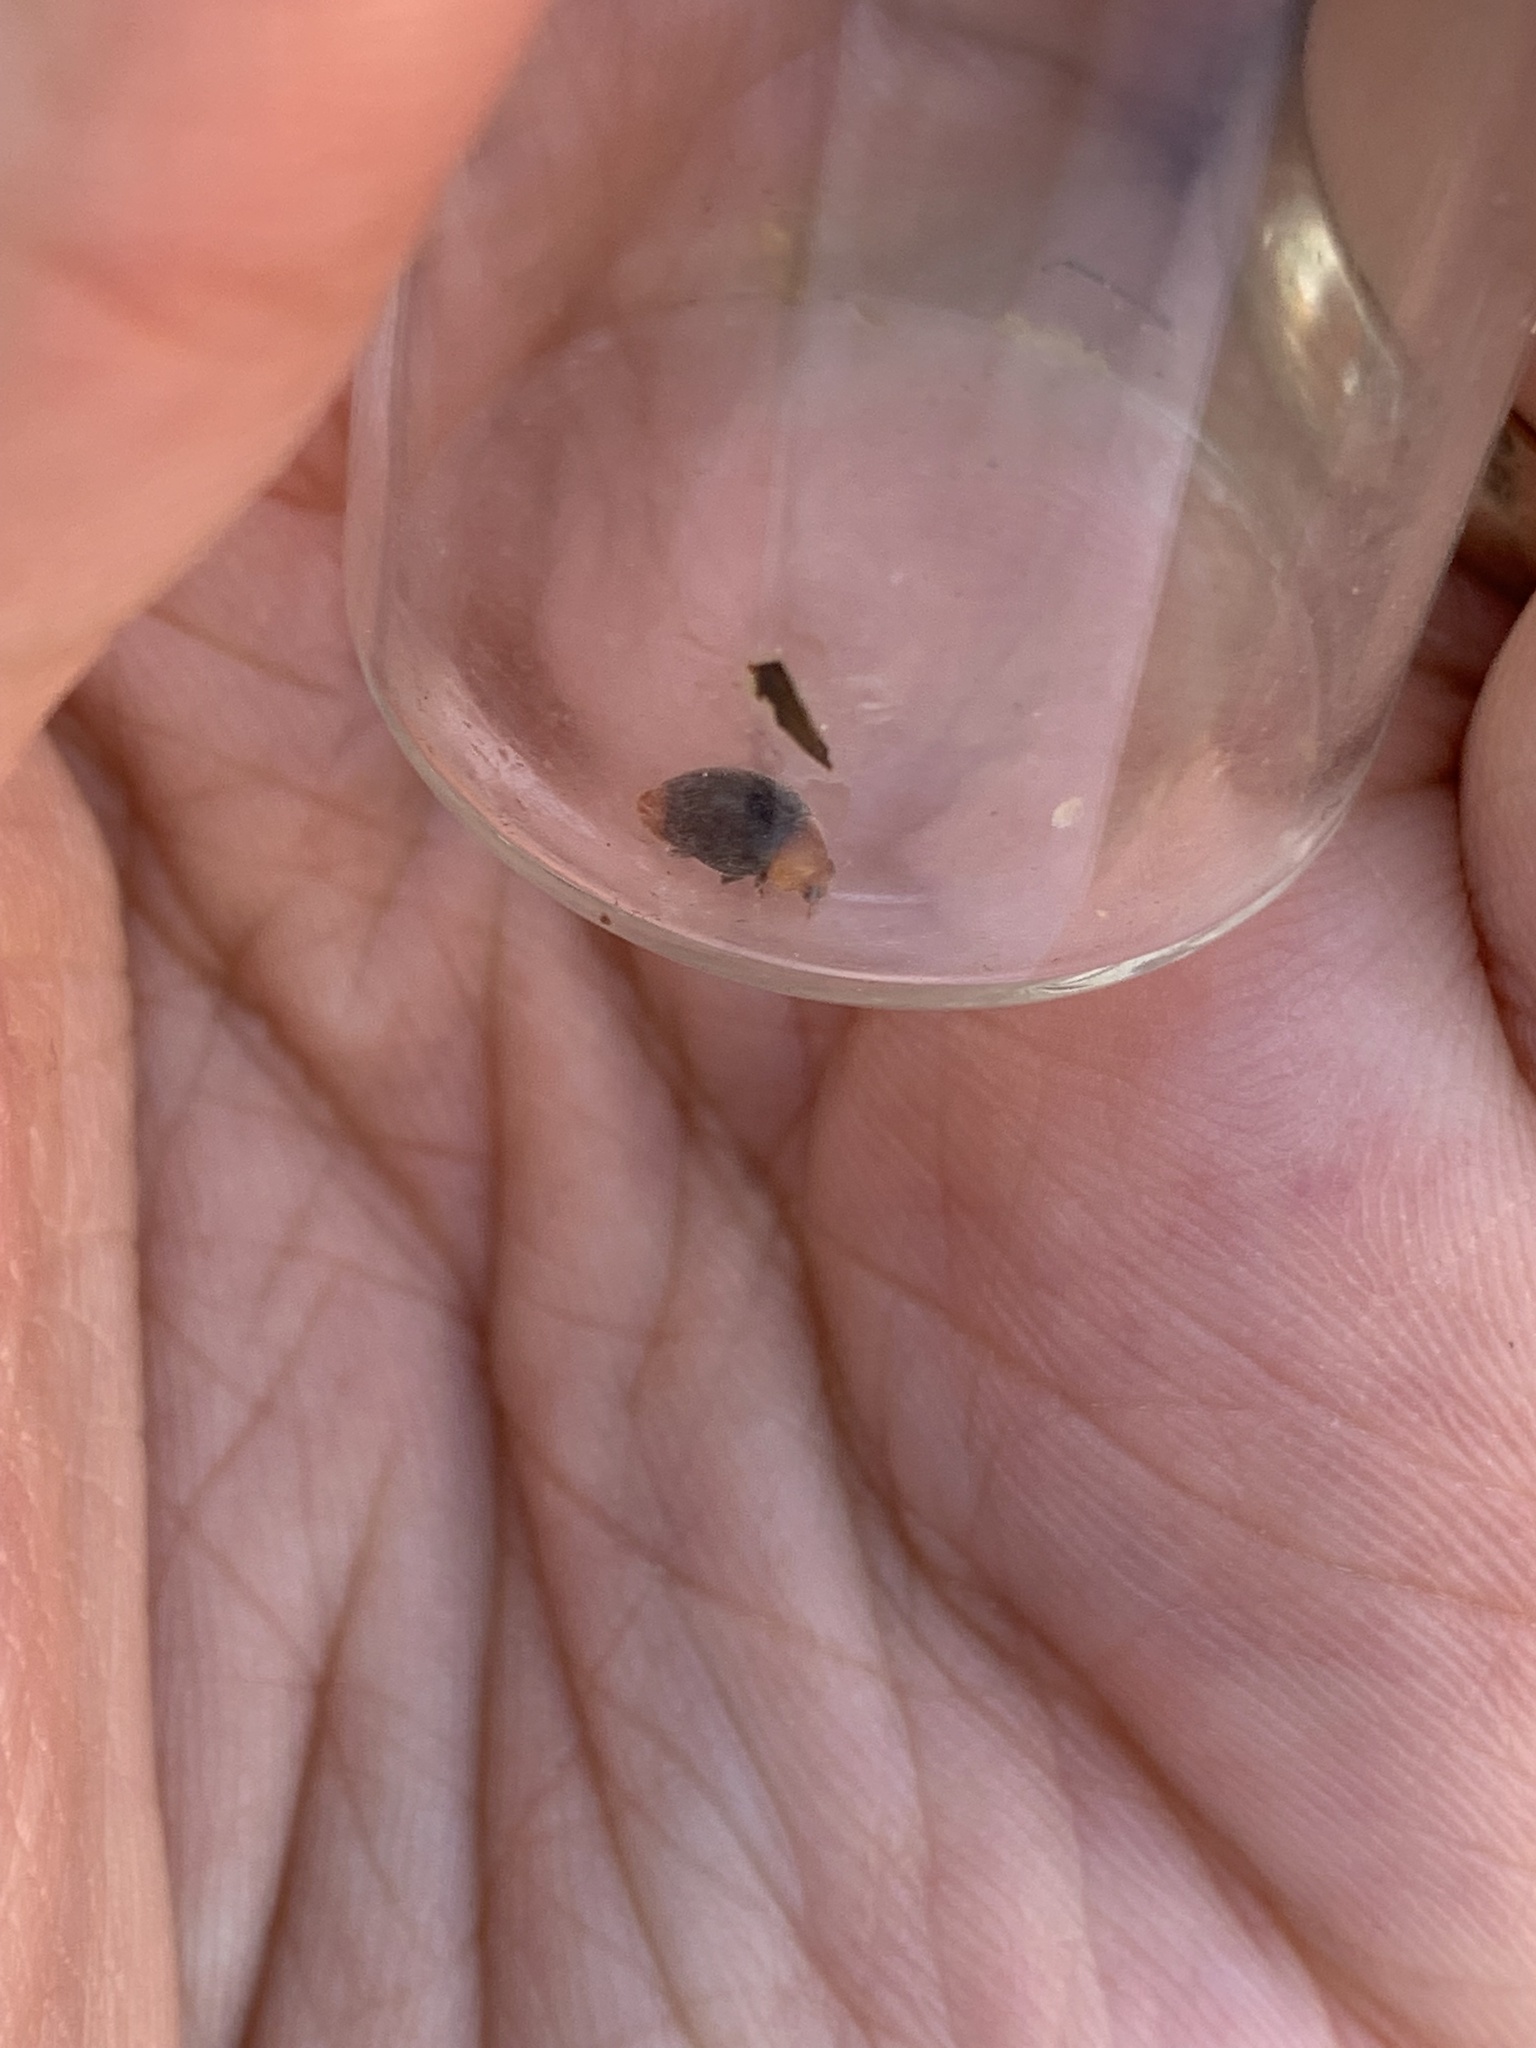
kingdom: Animalia
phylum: Arthropoda
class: Insecta
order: Coleoptera
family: Coccinellidae
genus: Cryptolaemus
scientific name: Cryptolaemus montrouzieri
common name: Mealybug destroyer
